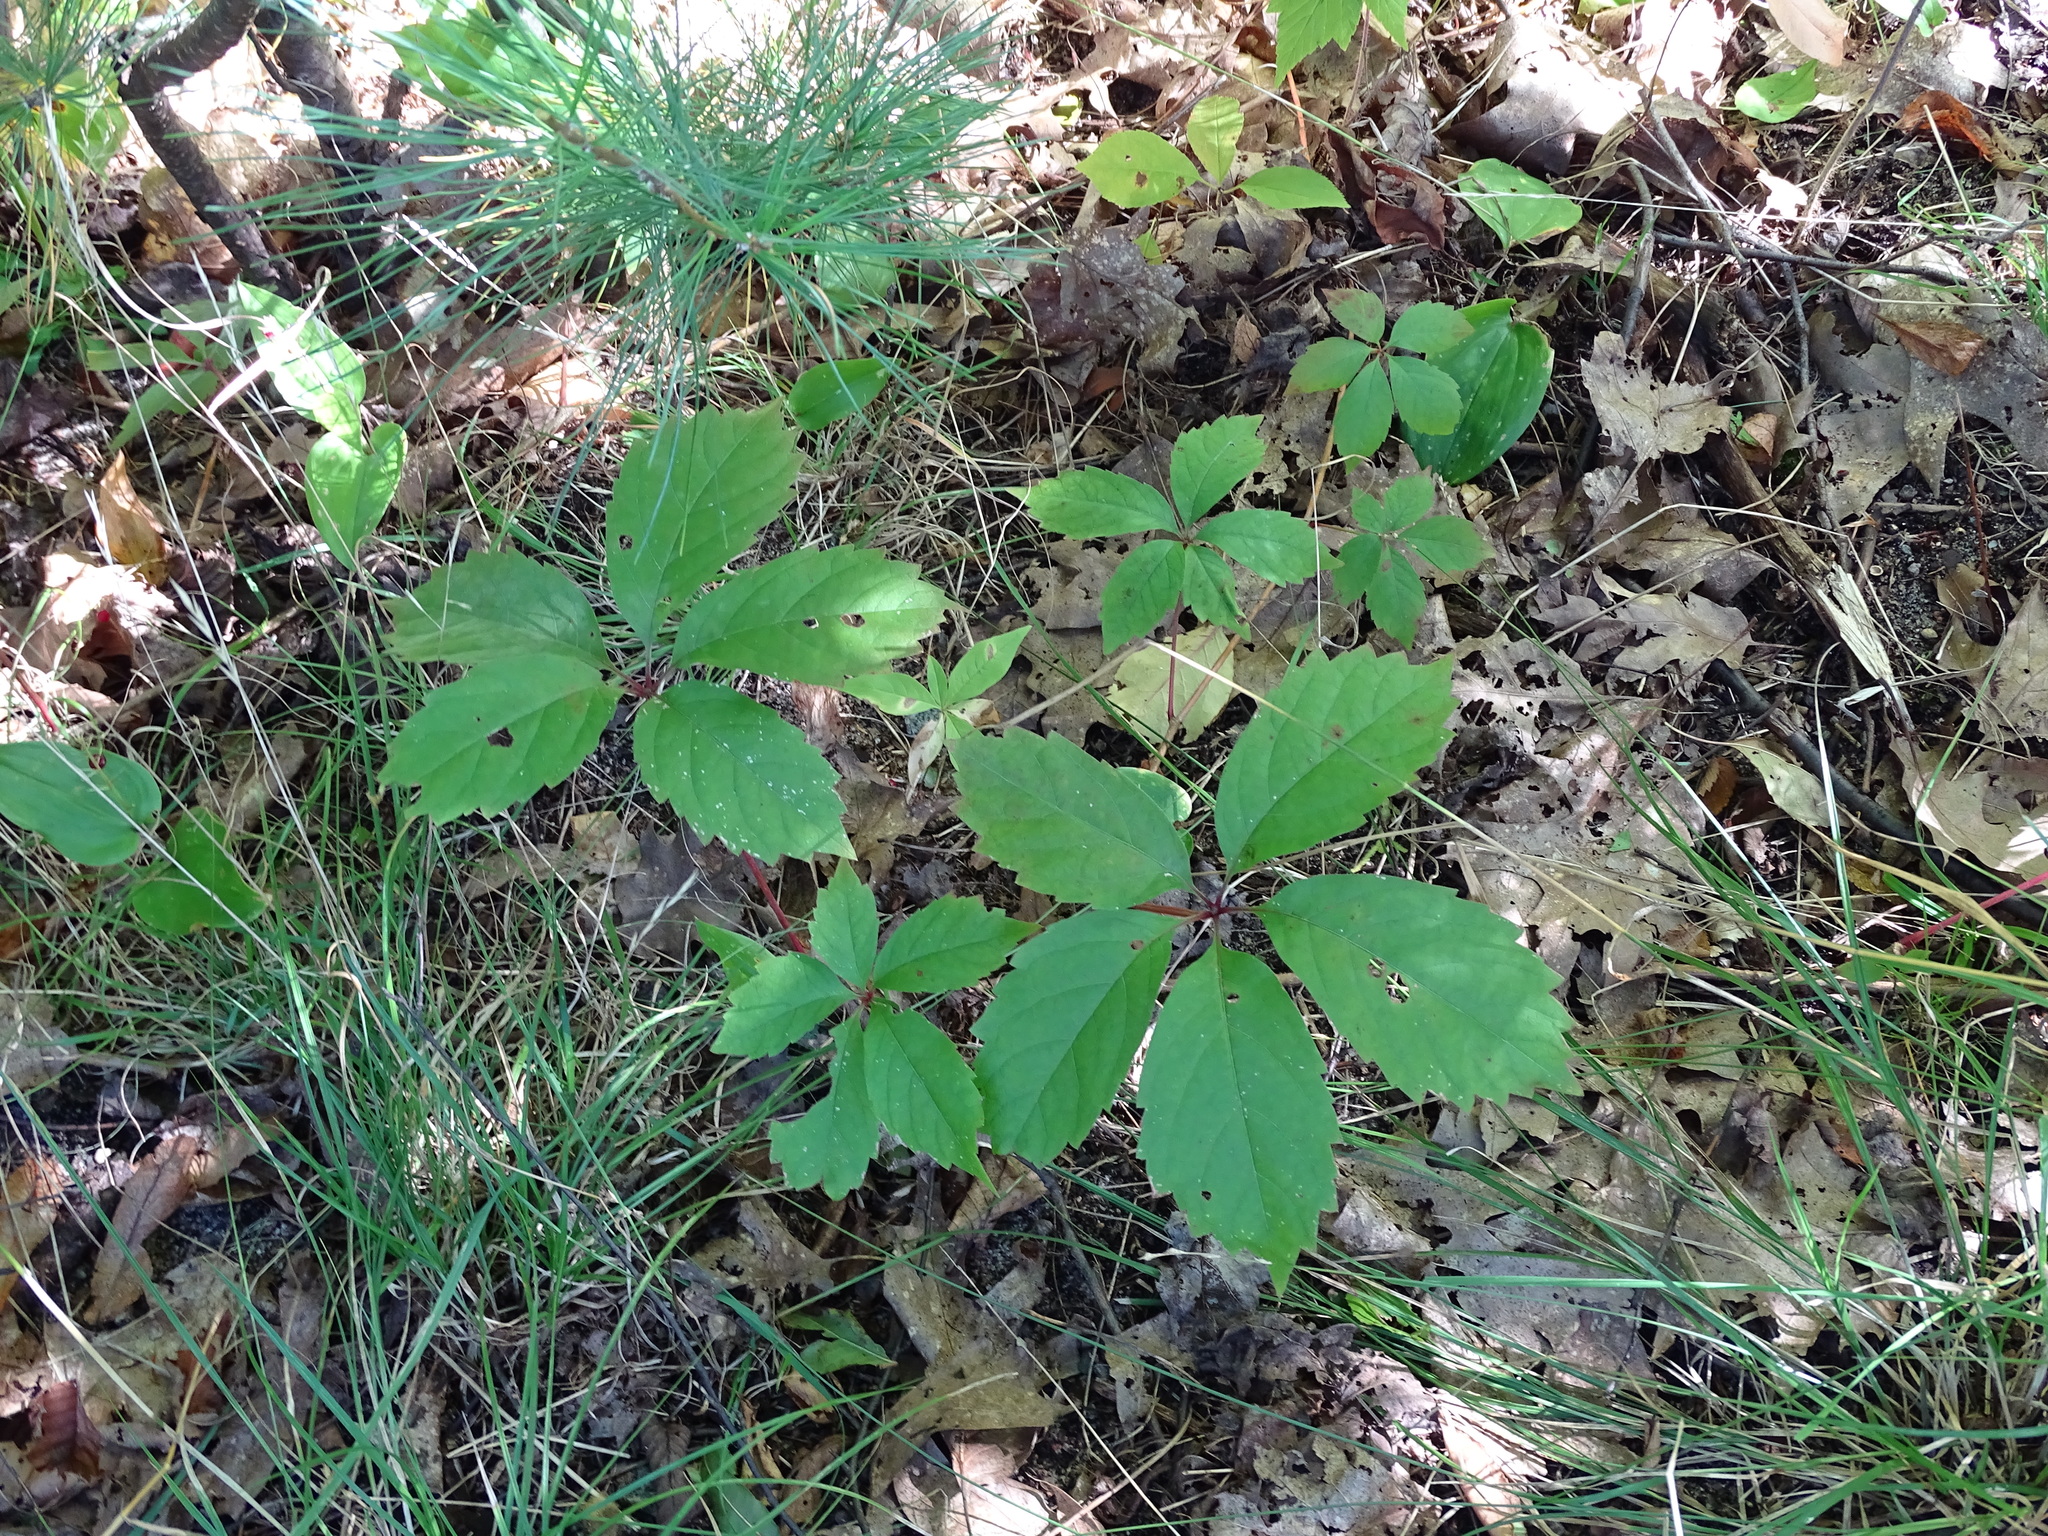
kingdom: Plantae
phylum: Tracheophyta
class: Magnoliopsida
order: Vitales
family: Vitaceae
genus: Parthenocissus
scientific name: Parthenocissus inserta
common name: False virginia-creeper
